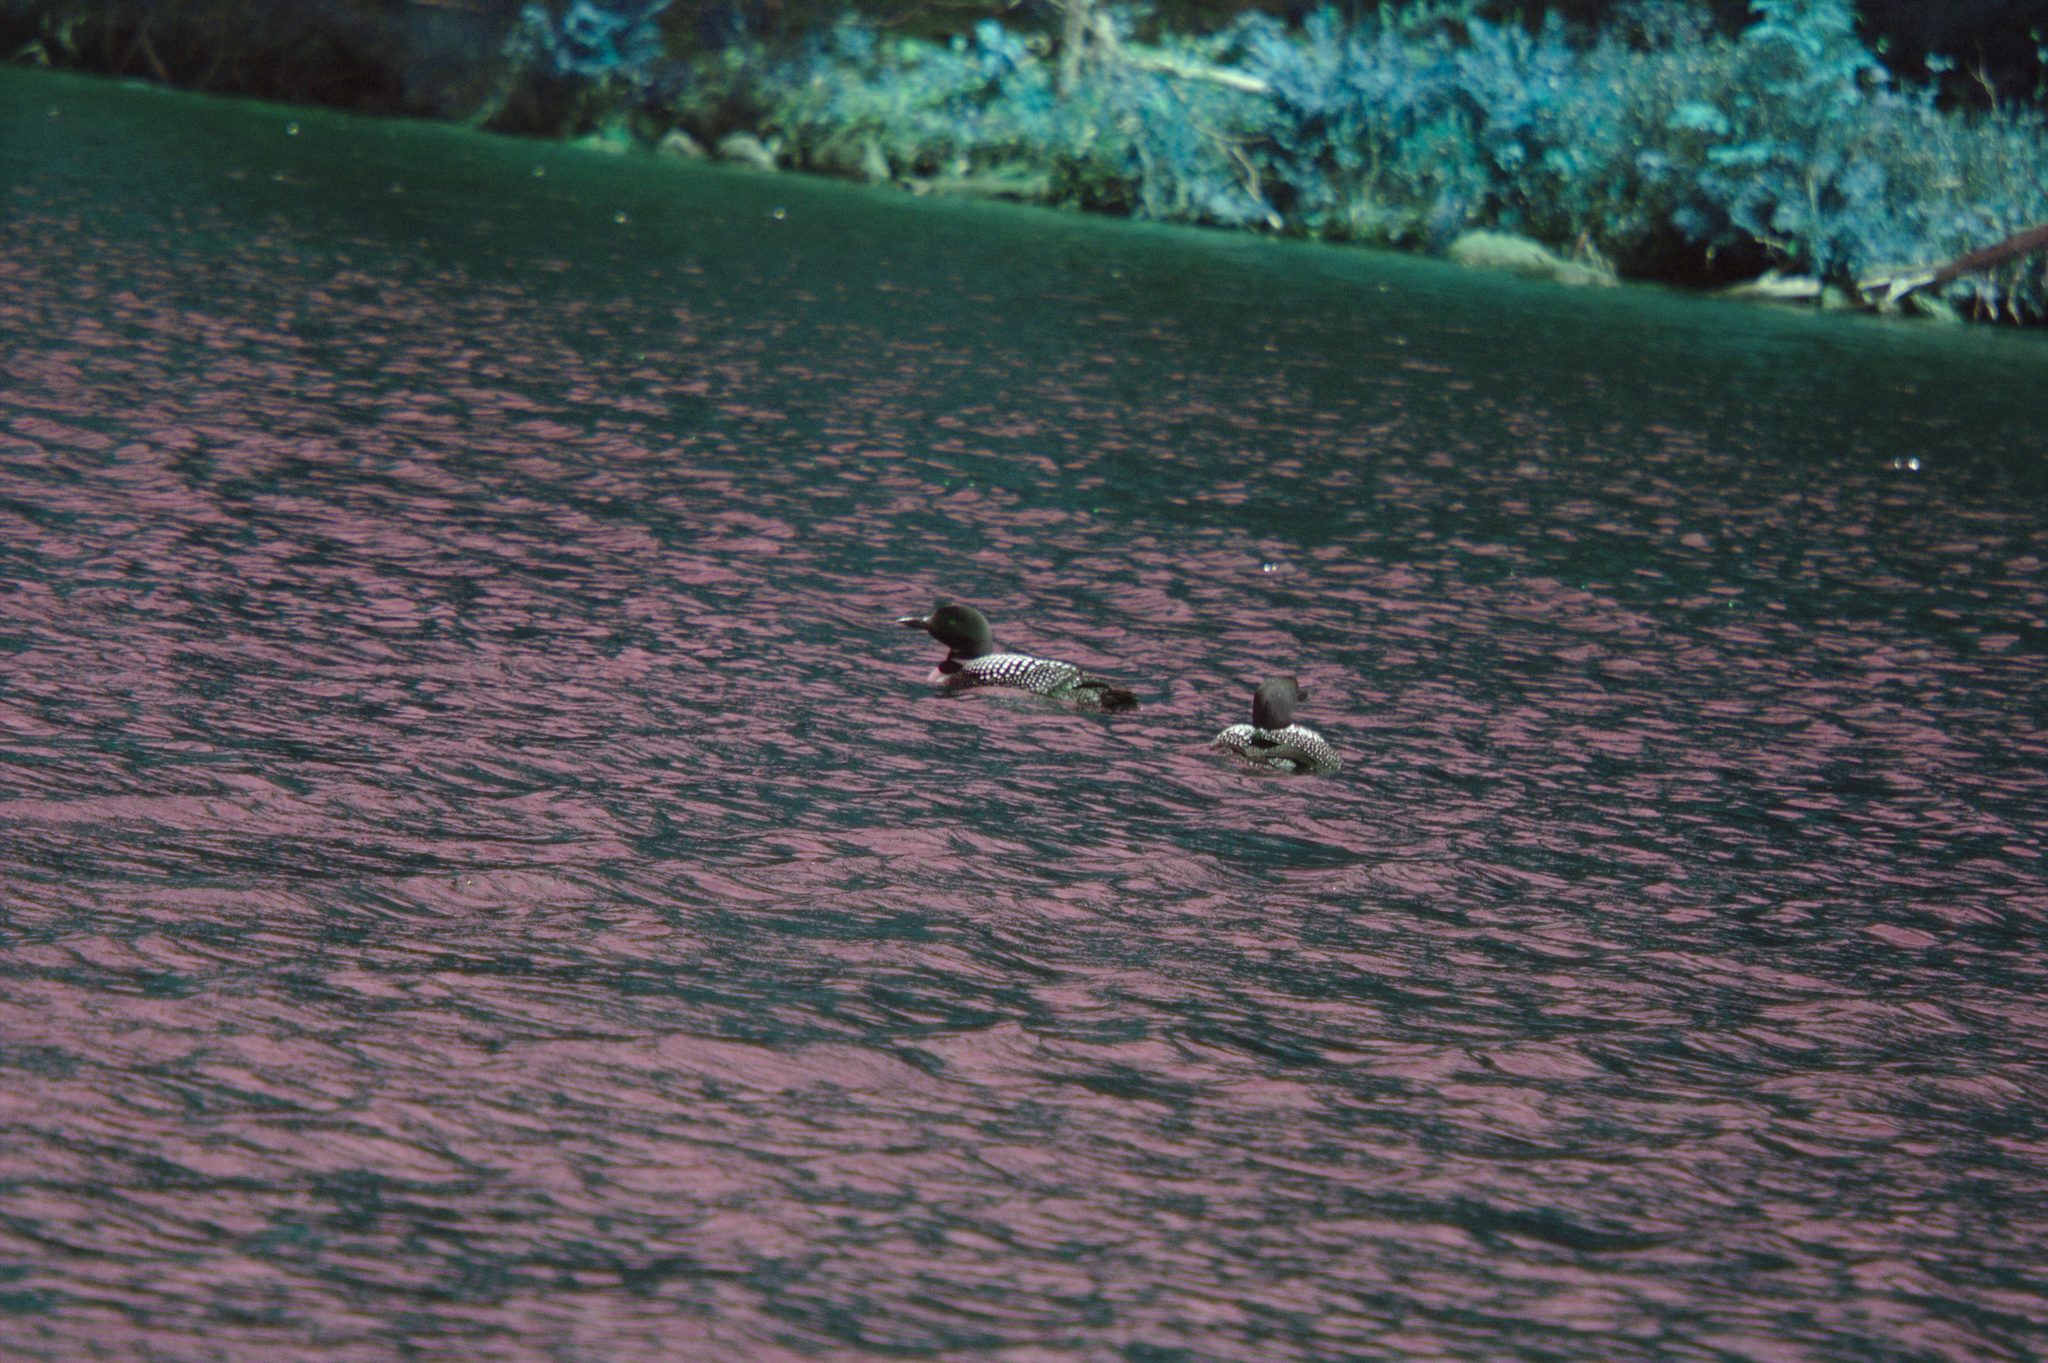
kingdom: Animalia
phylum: Chordata
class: Aves
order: Gaviiformes
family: Gaviidae
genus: Gavia
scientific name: Gavia immer
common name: Common loon
